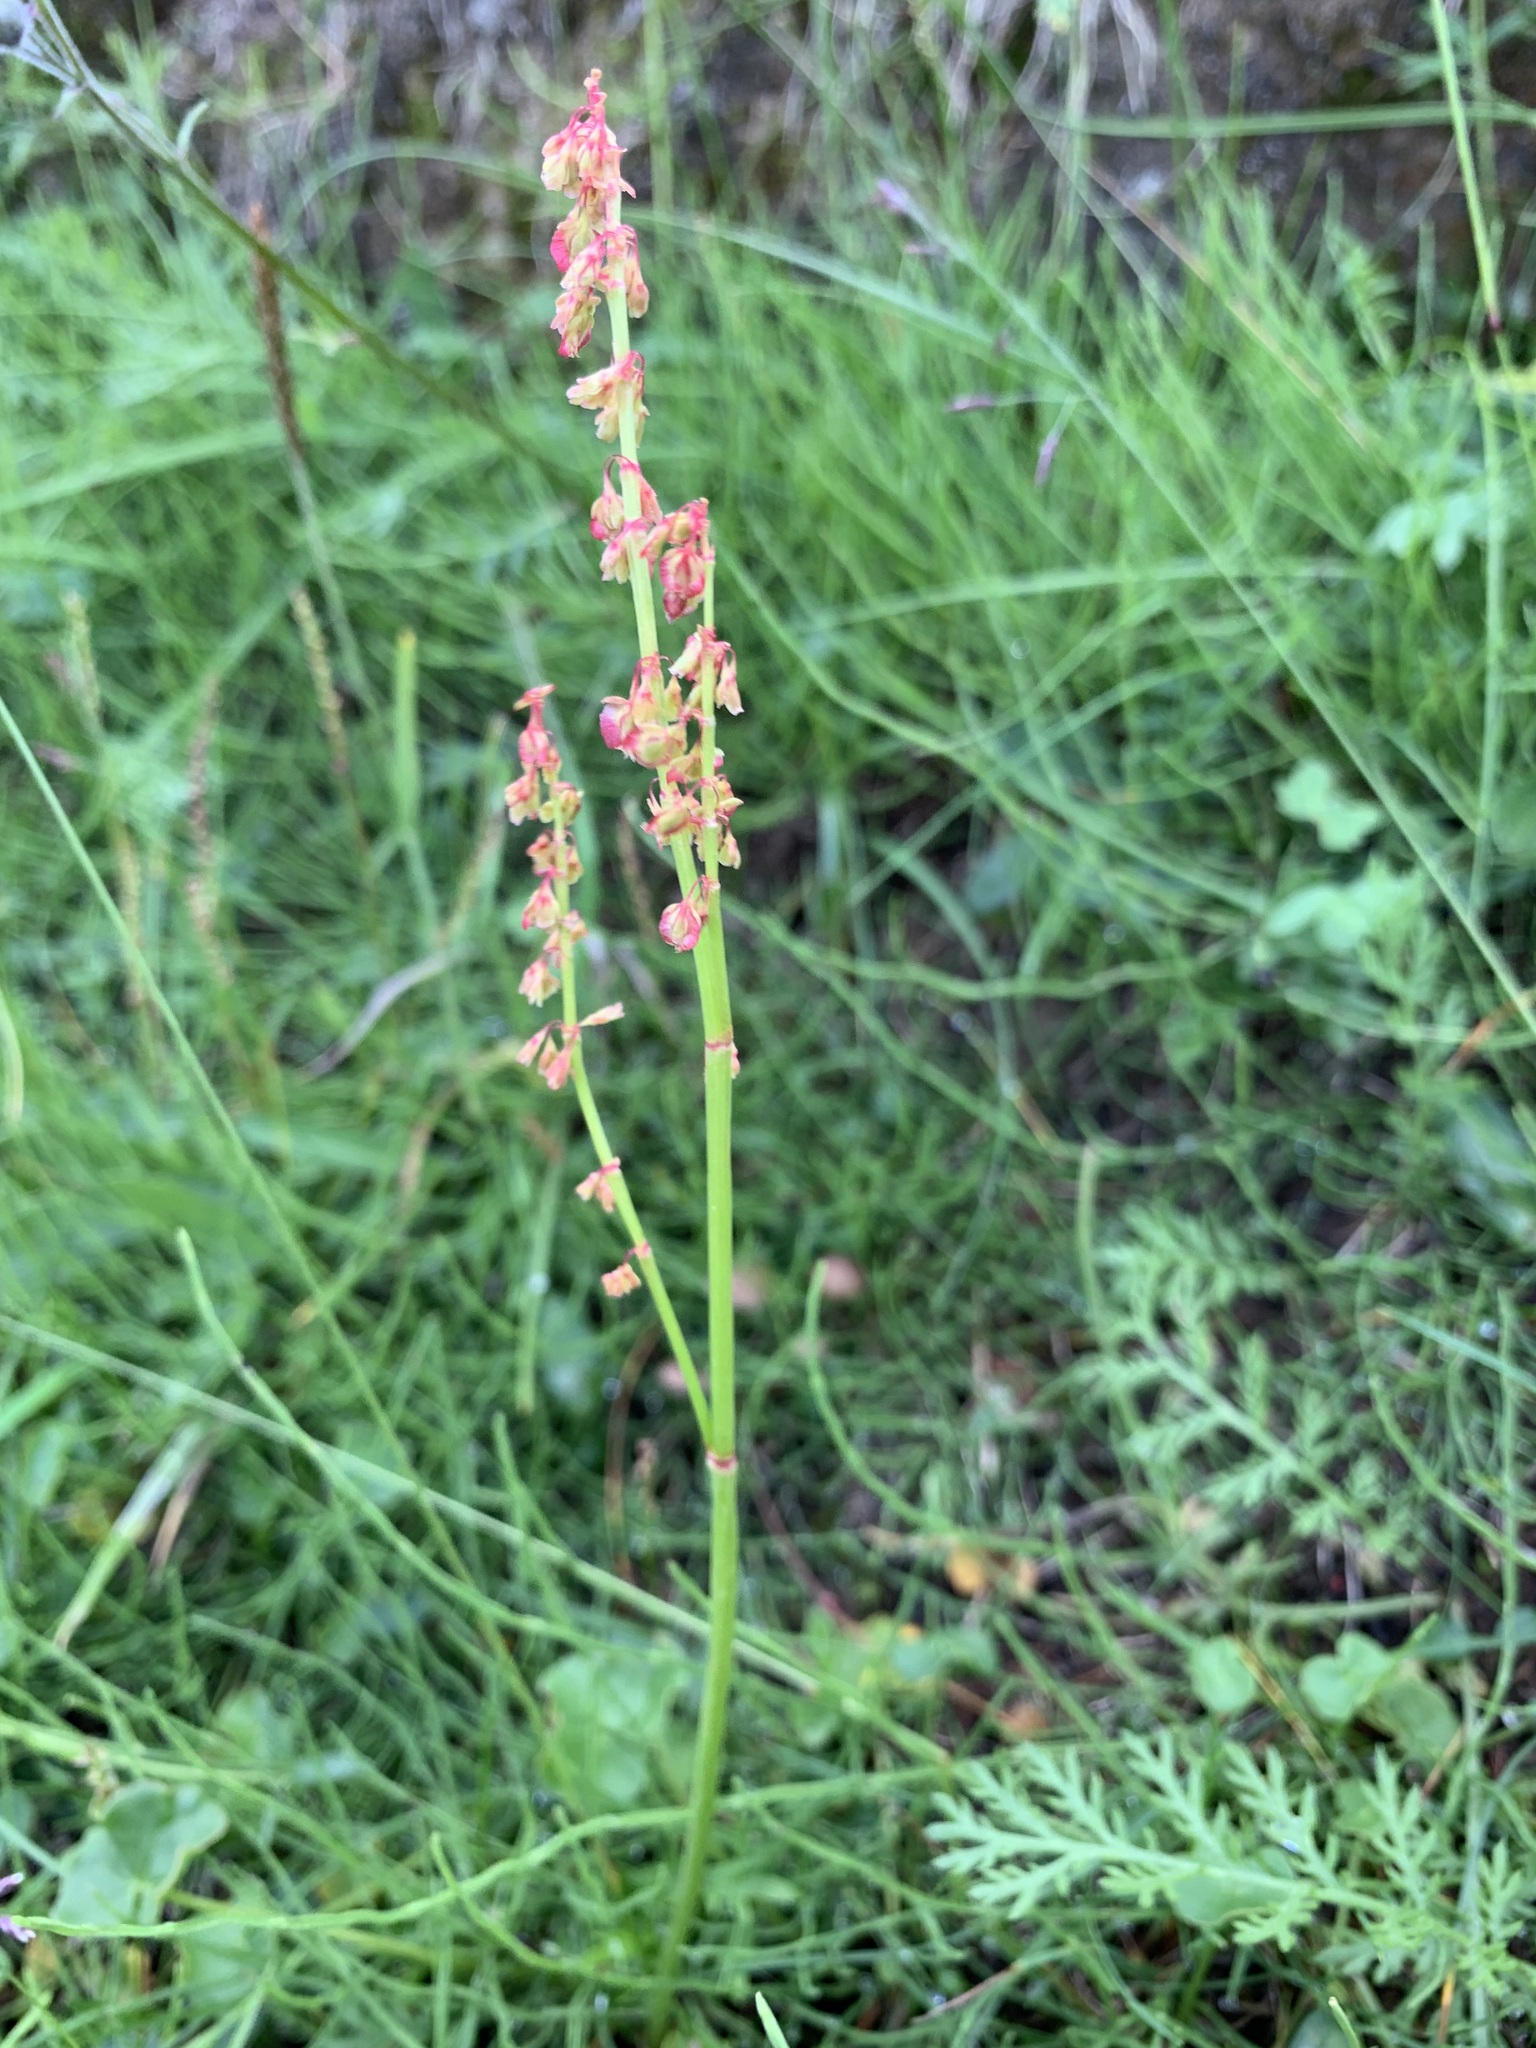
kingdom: Plantae
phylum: Tracheophyta
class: Magnoliopsida
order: Caryophyllales
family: Polygonaceae
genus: Oxyria
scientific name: Oxyria digyna
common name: Alpine mountain-sorrel
